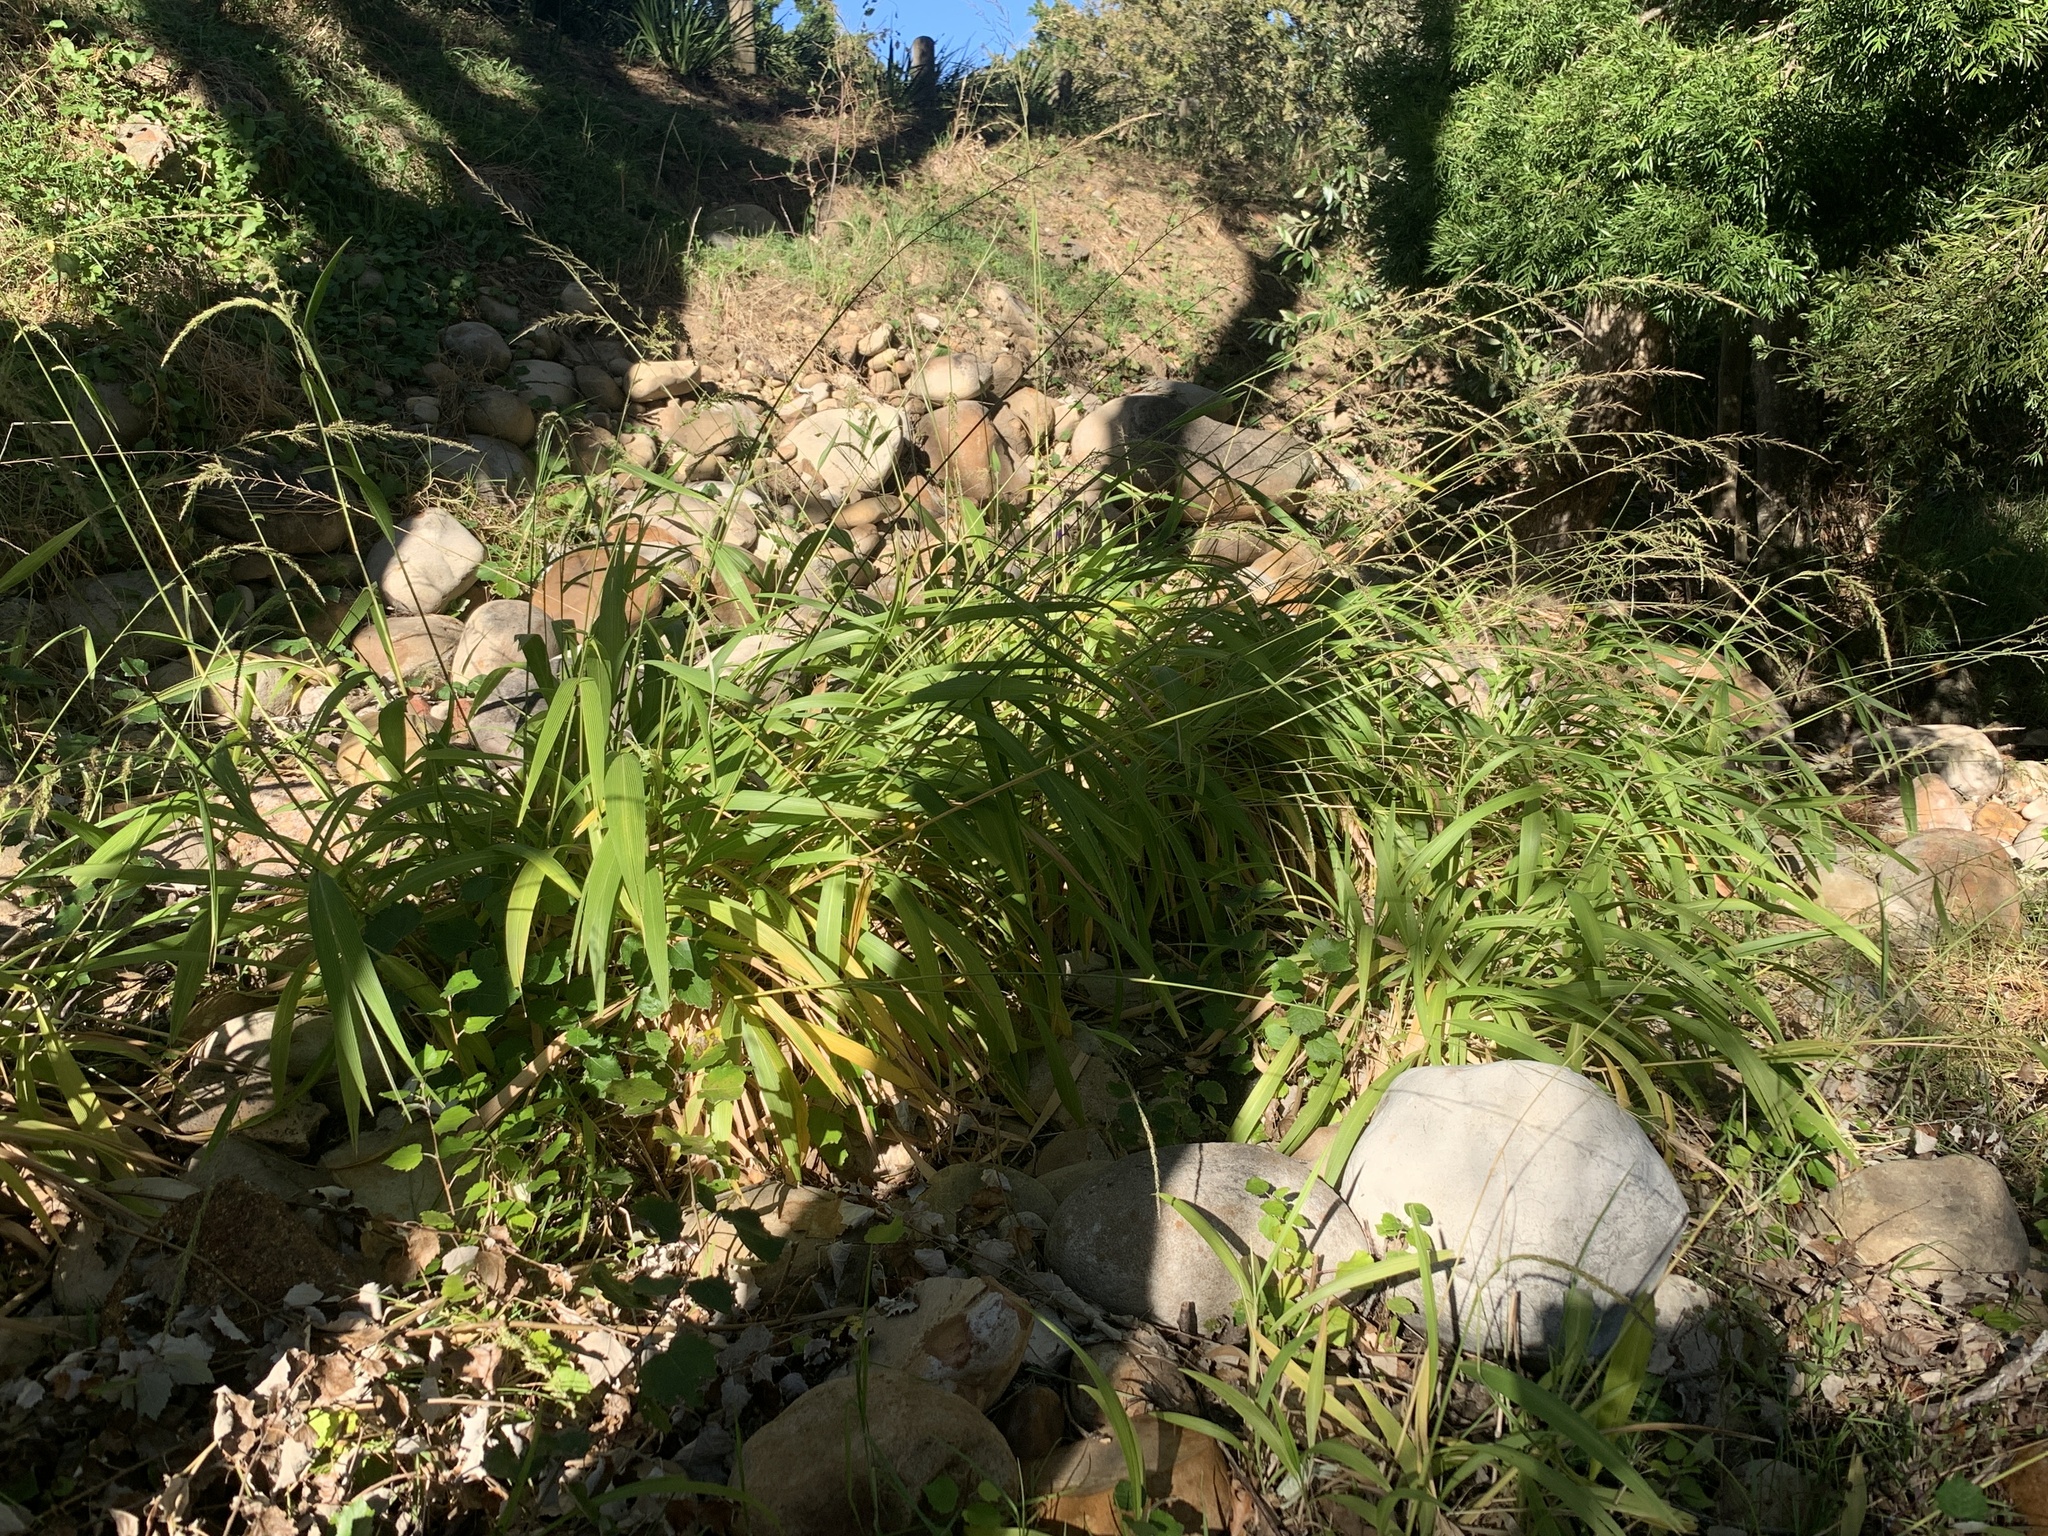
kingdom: Plantae
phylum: Tracheophyta
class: Liliopsida
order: Poales
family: Poaceae
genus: Setaria
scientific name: Setaria megaphylla
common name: Bigleaf bristlegrass
